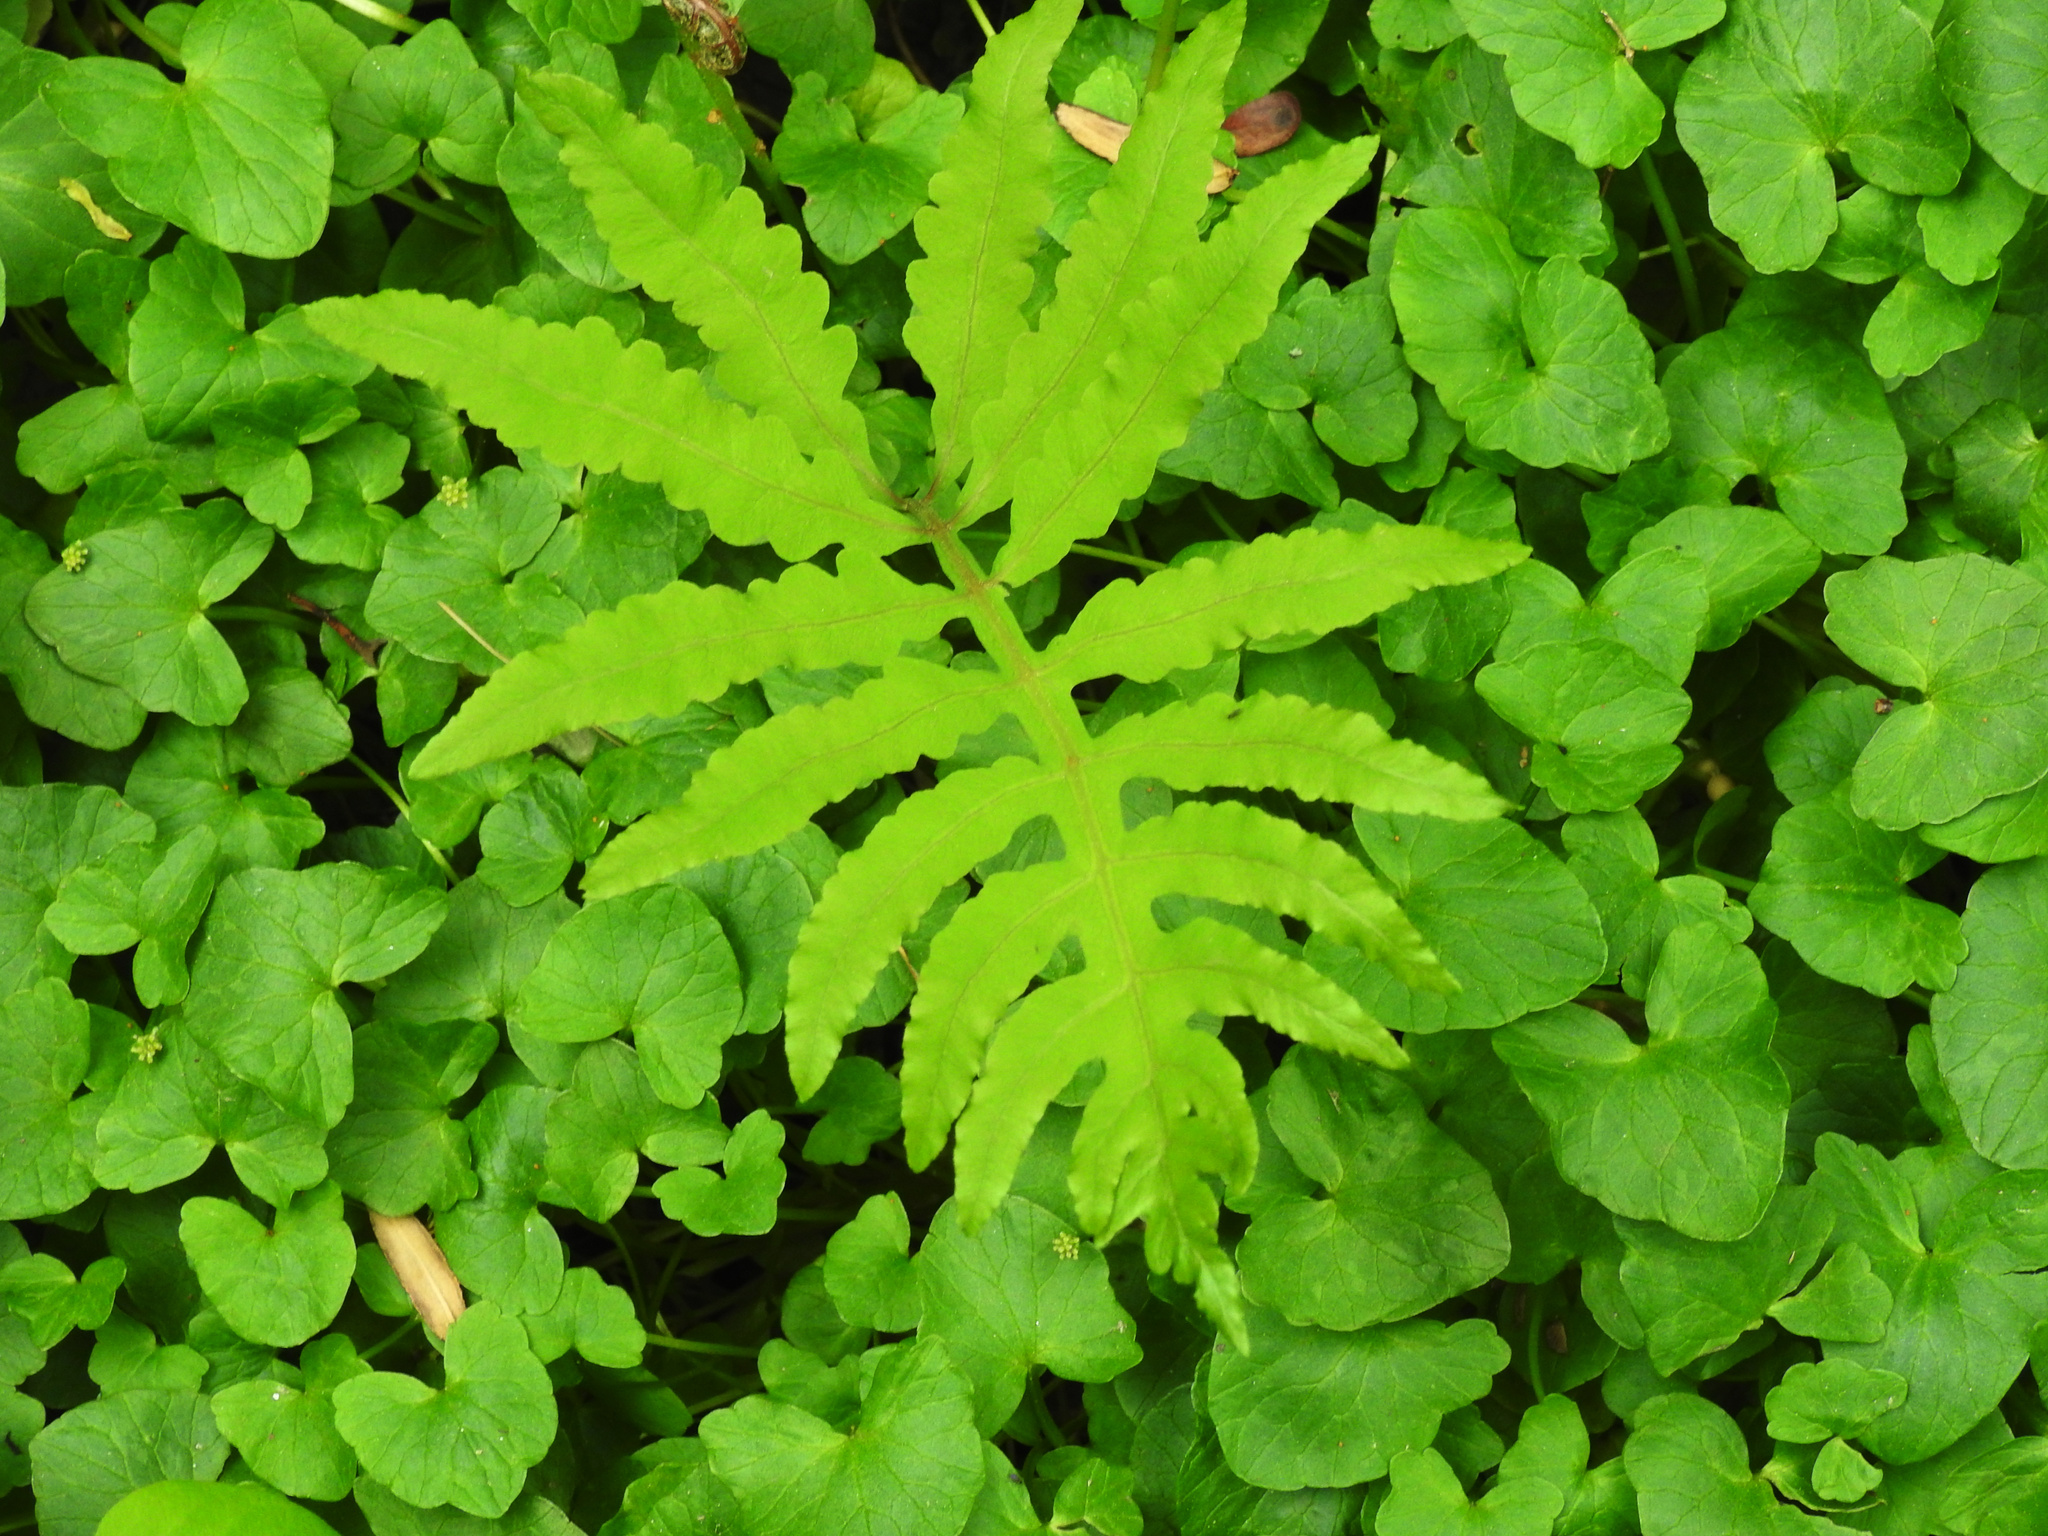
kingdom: Plantae
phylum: Tracheophyta
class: Polypodiopsida
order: Polypodiales
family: Onocleaceae
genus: Onoclea
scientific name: Onoclea sensibilis
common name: Sensitive fern
